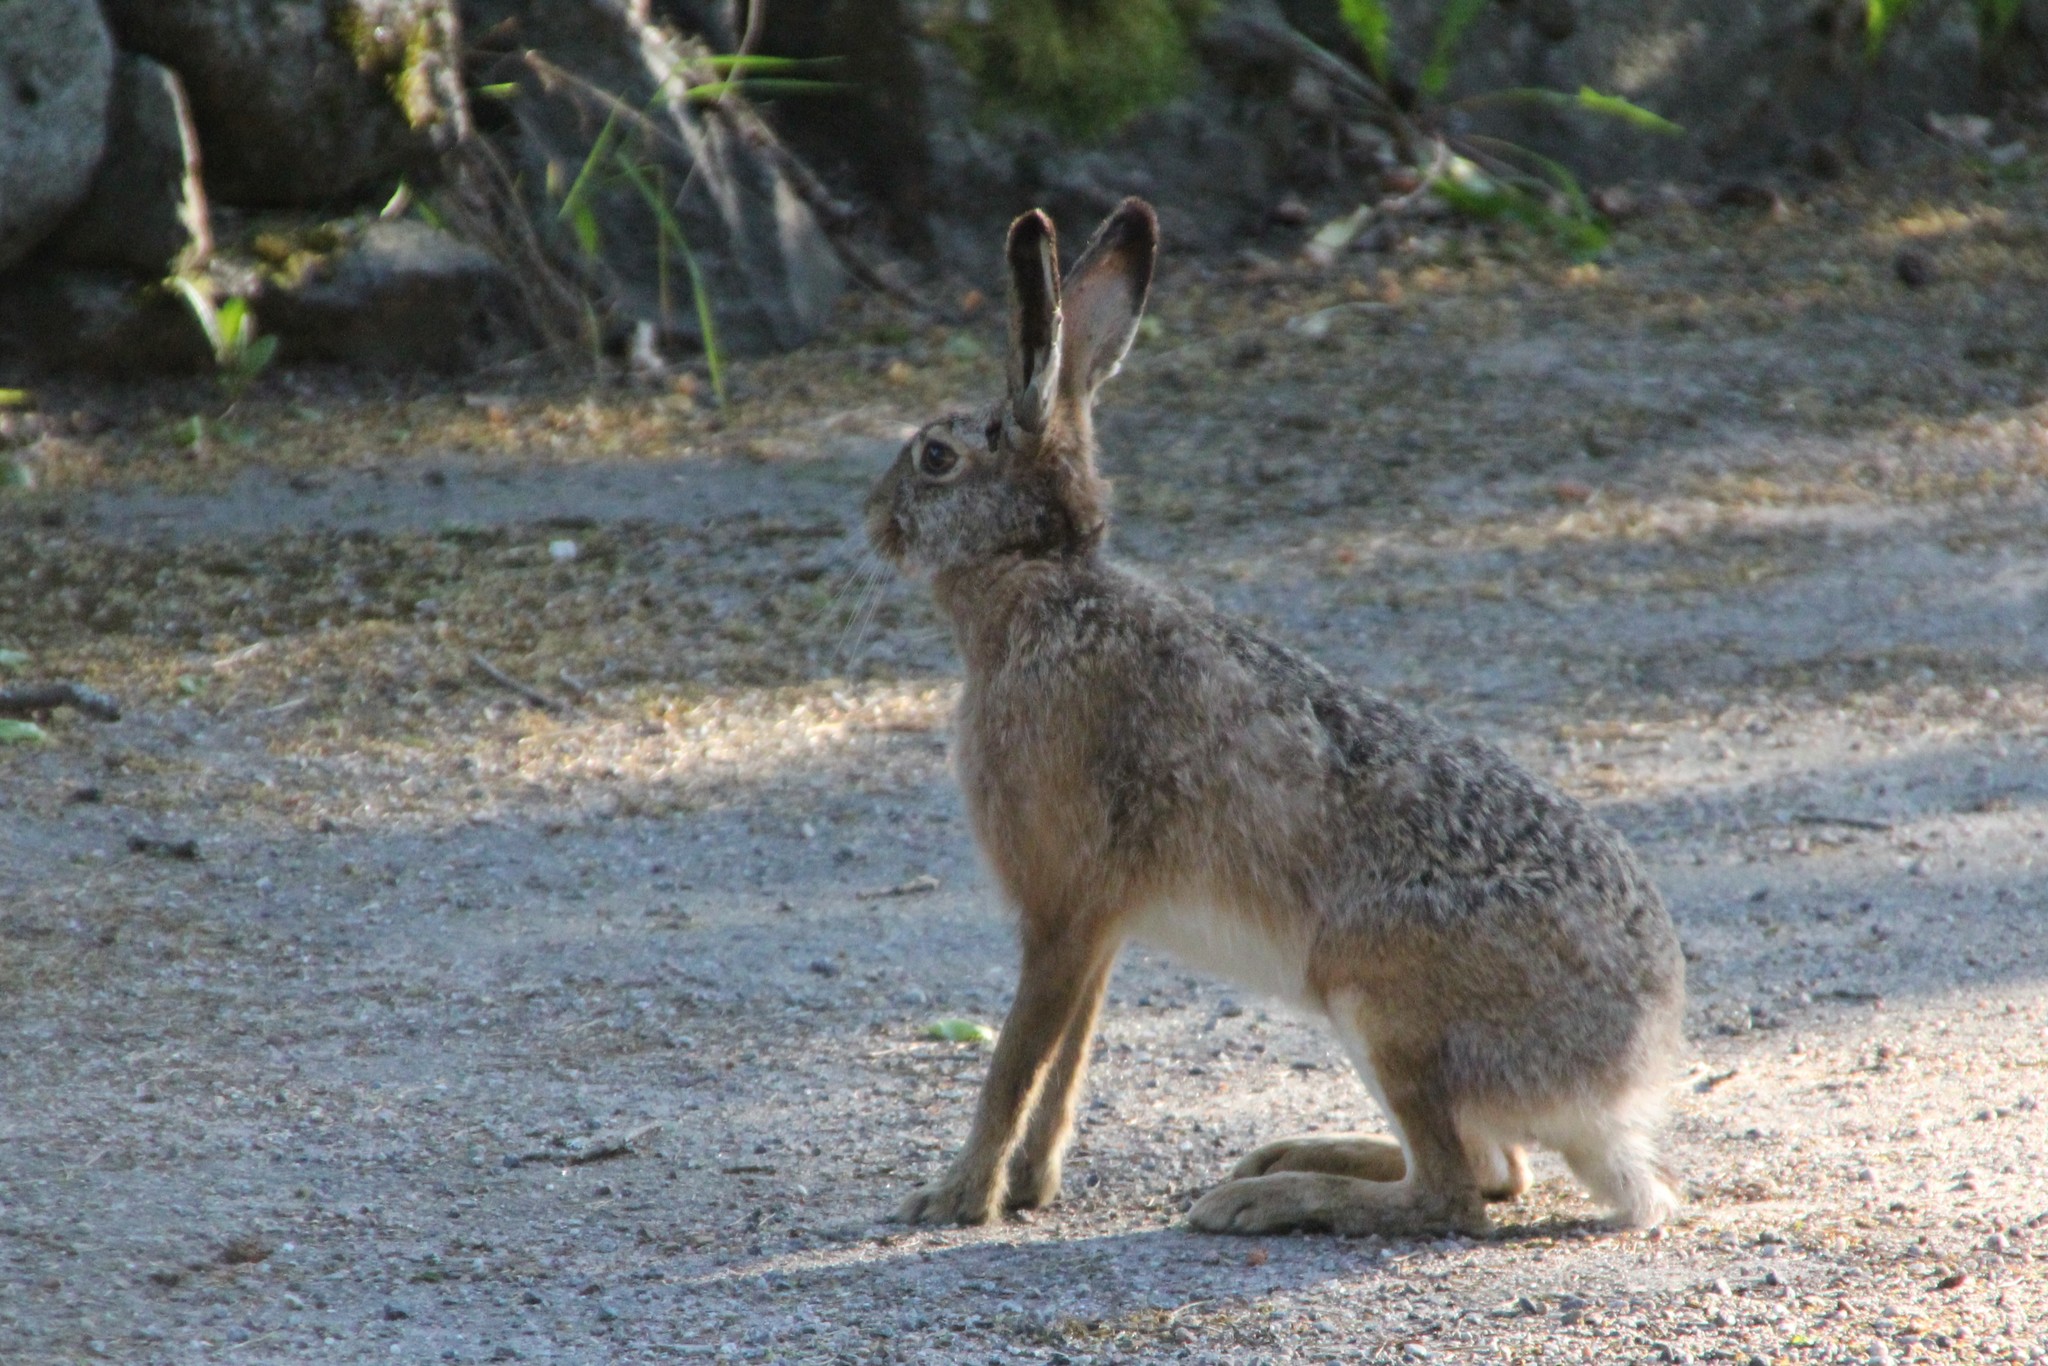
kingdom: Animalia
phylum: Chordata
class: Mammalia
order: Lagomorpha
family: Leporidae
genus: Lepus
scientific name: Lepus europaeus
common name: European hare
